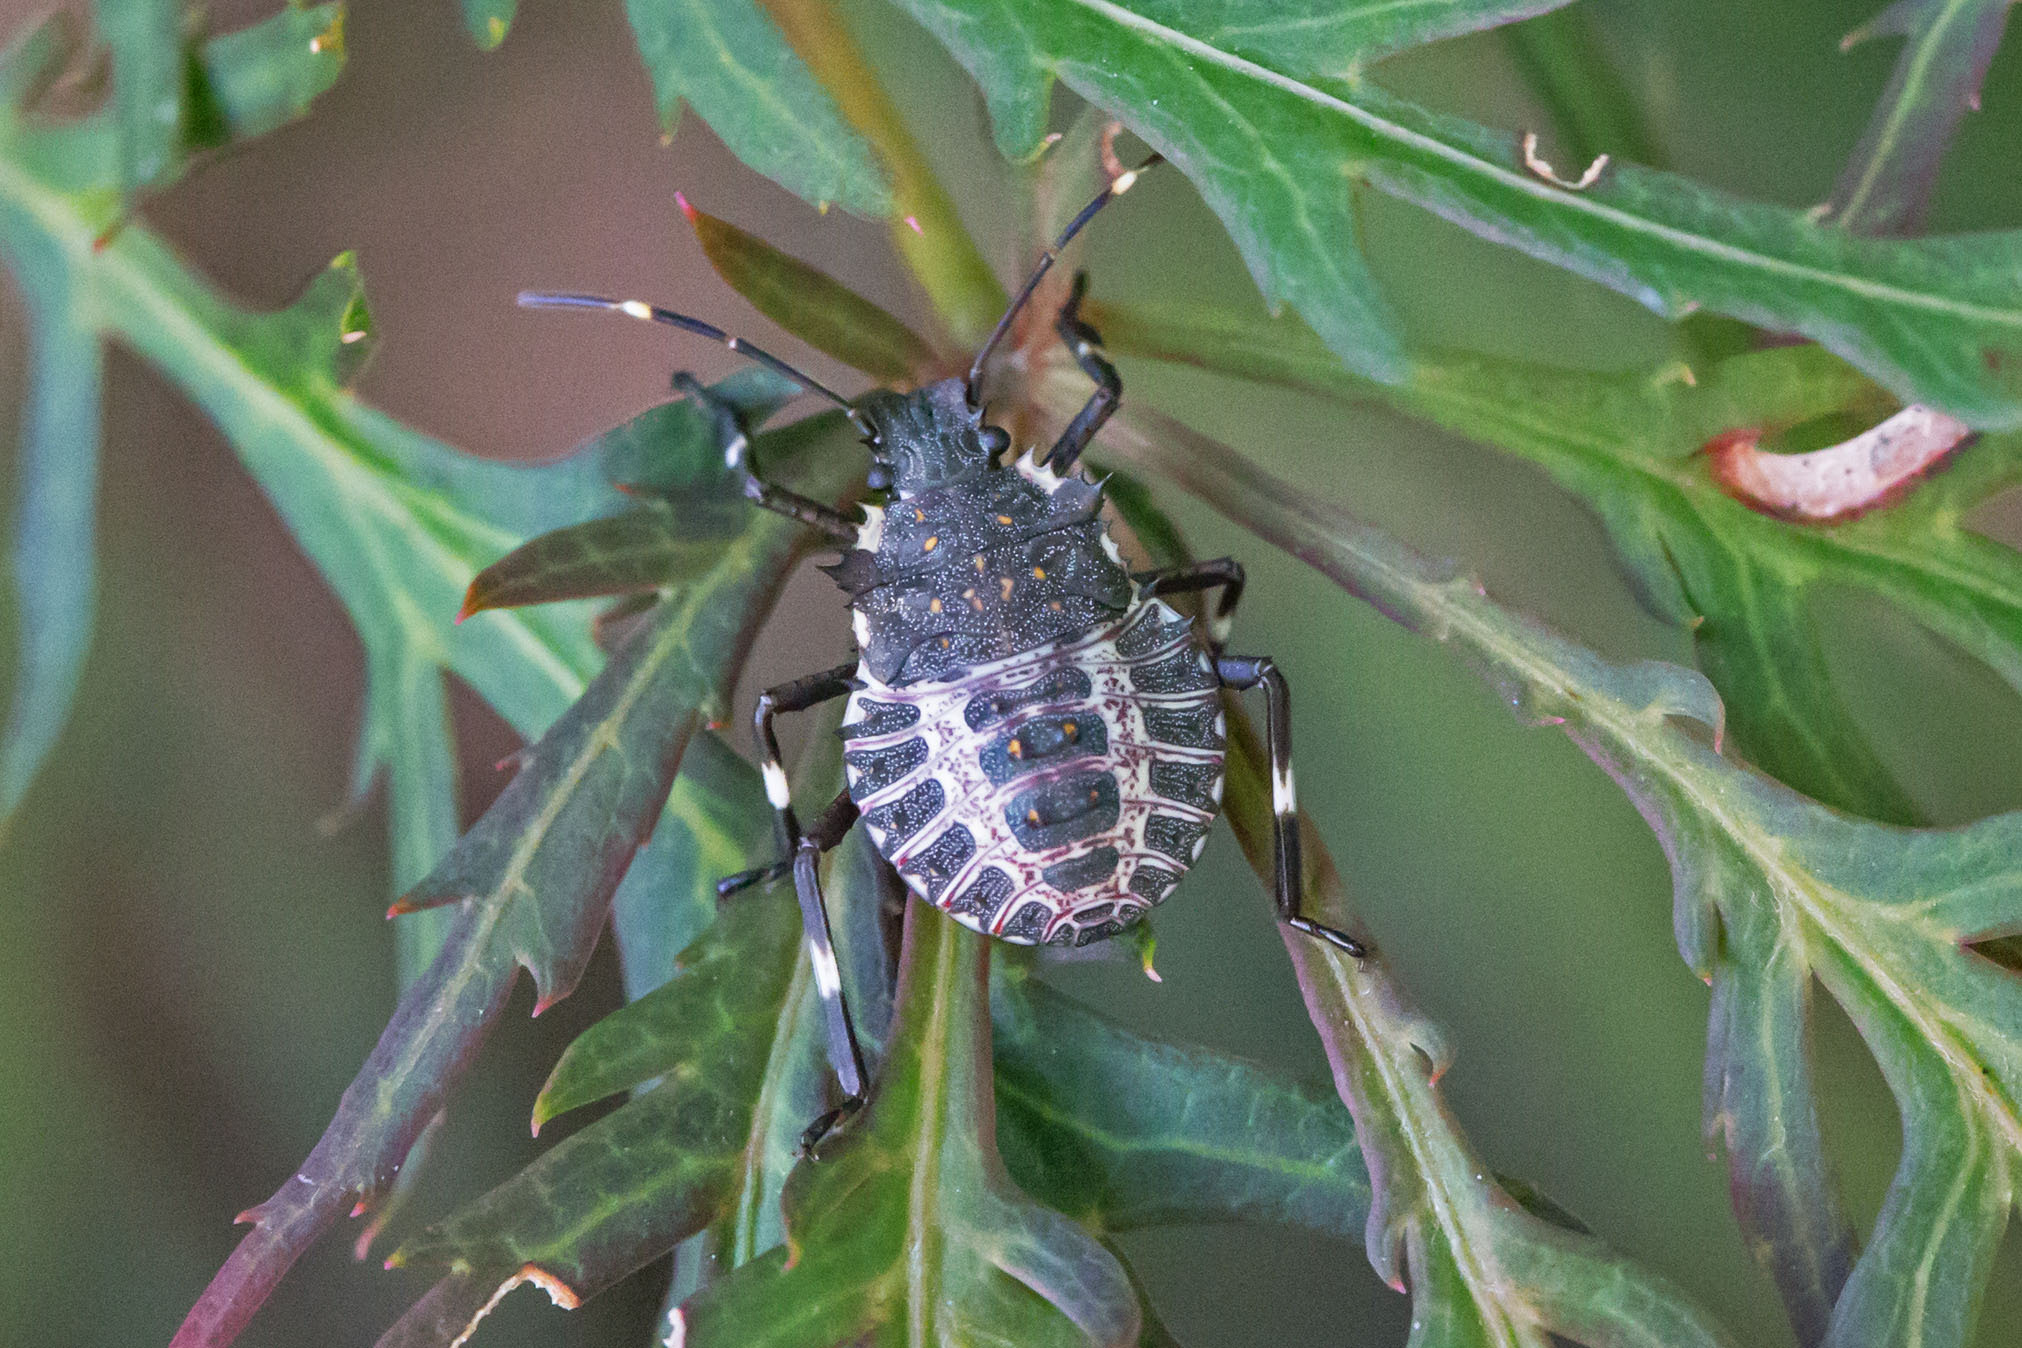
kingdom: Animalia
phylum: Arthropoda
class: Insecta
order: Hemiptera
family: Pentatomidae
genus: Halyomorpha
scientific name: Halyomorpha halys
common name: Brown marmorated stink bug
